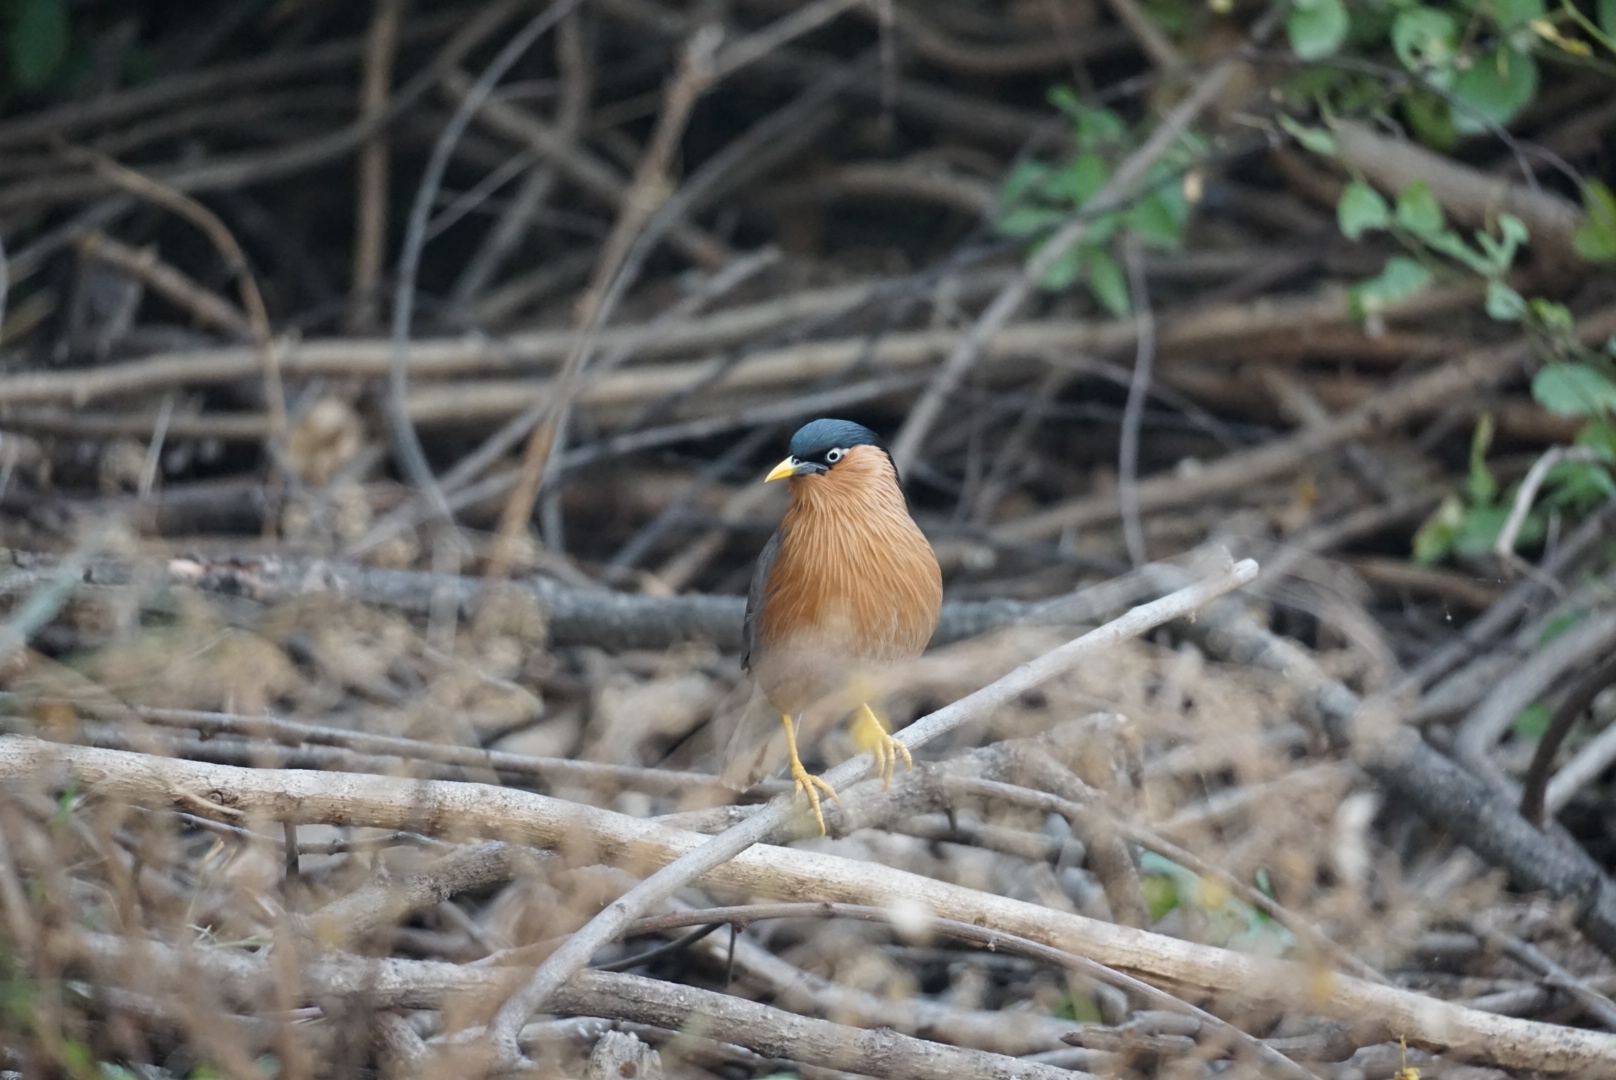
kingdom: Animalia
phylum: Chordata
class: Aves
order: Passeriformes
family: Sturnidae
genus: Sturnia
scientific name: Sturnia pagodarum
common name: Brahminy starling
